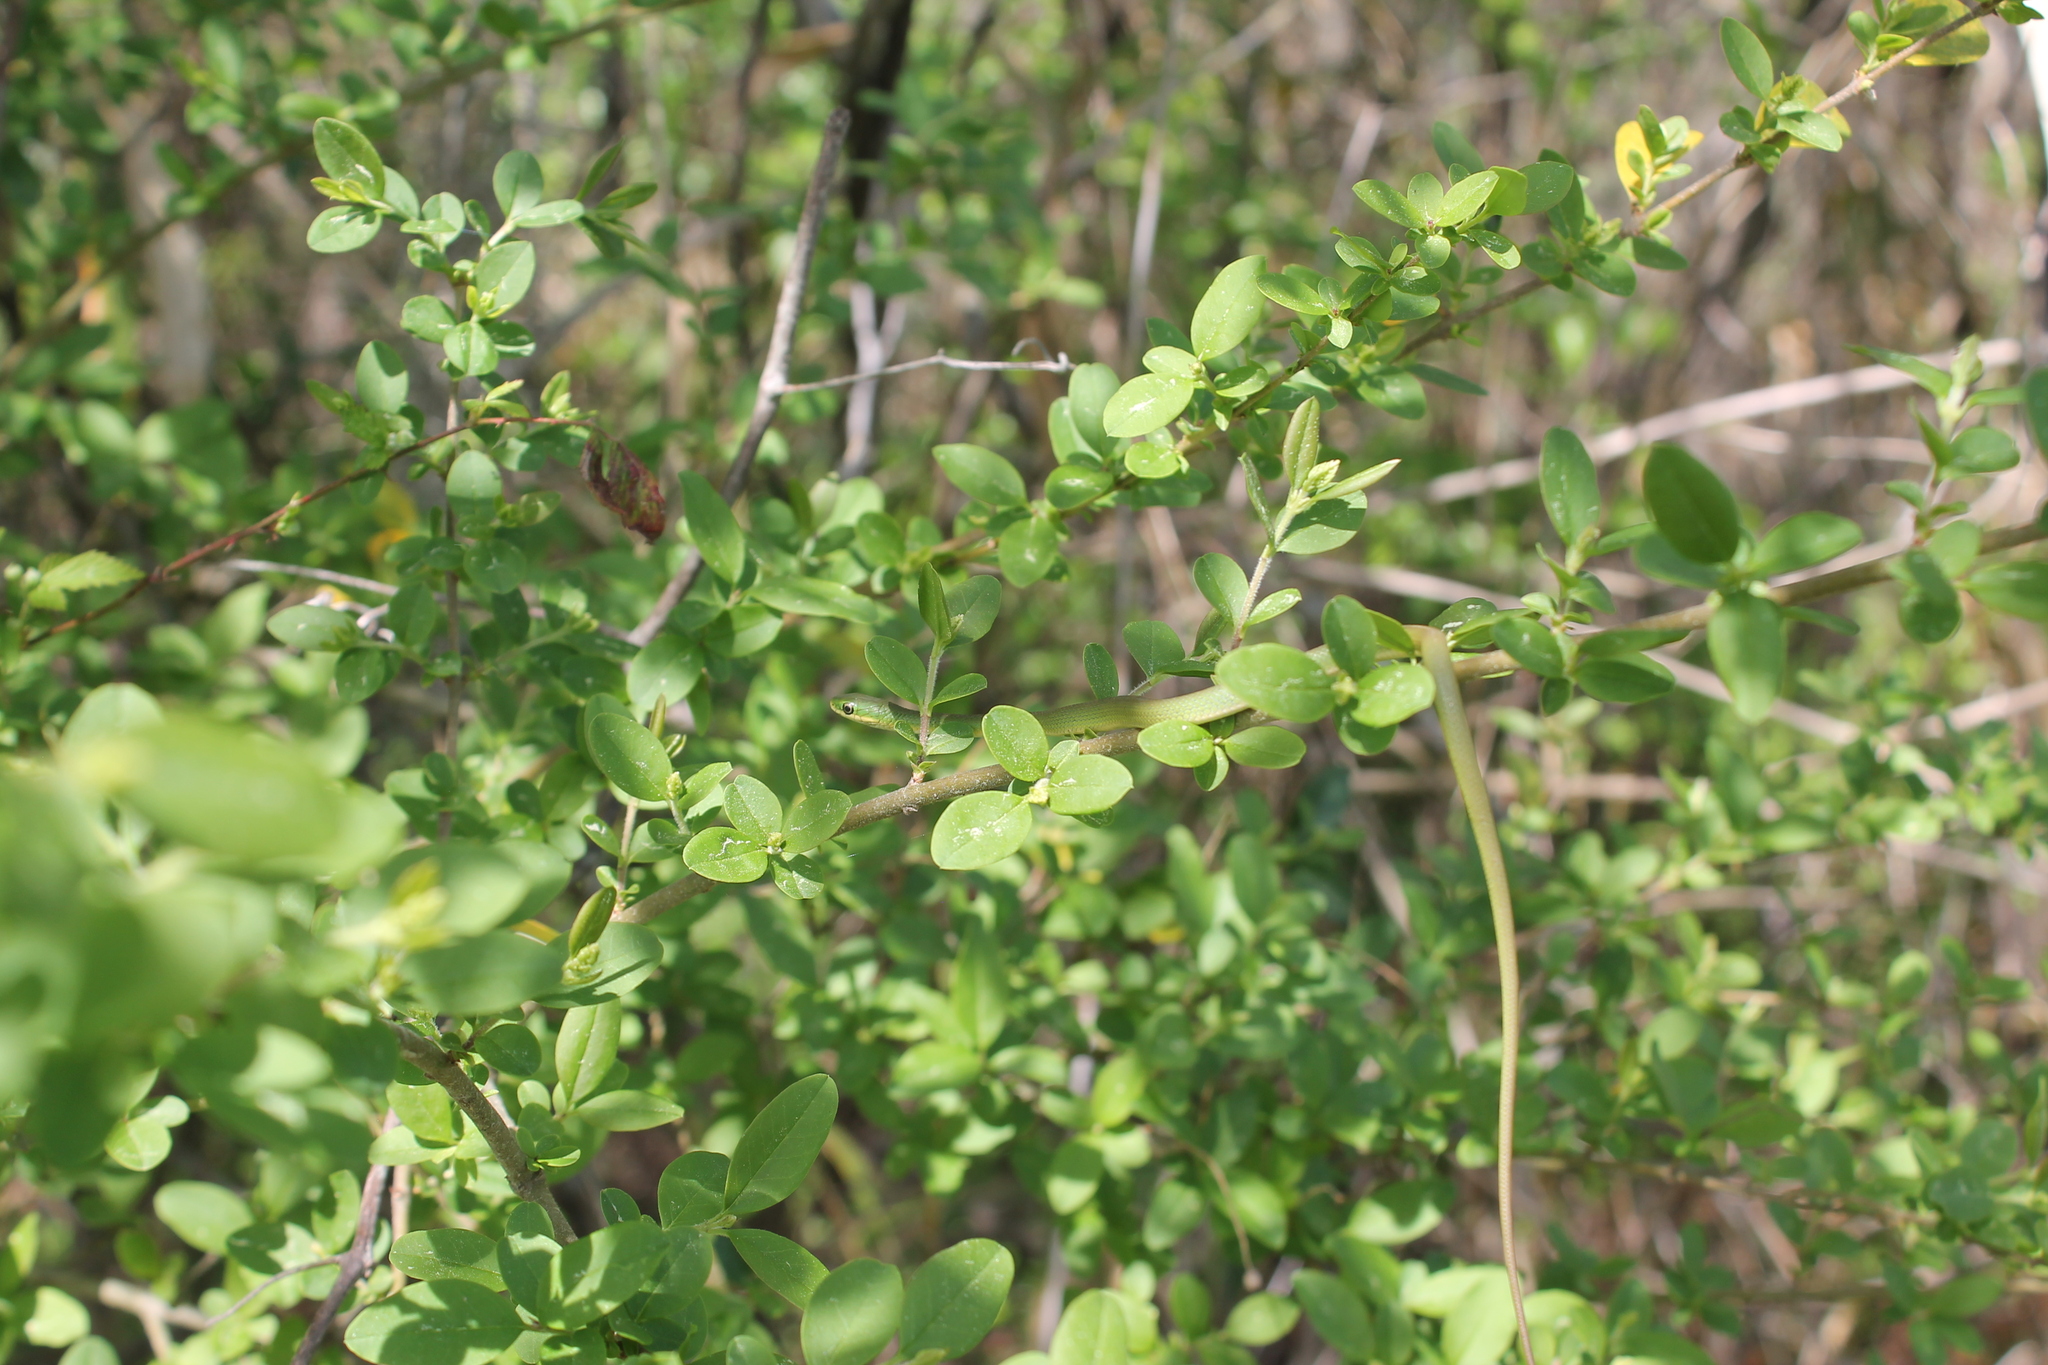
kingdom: Animalia
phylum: Chordata
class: Squamata
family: Colubridae
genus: Opheodrys
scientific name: Opheodrys aestivus
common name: Rough greensnake
